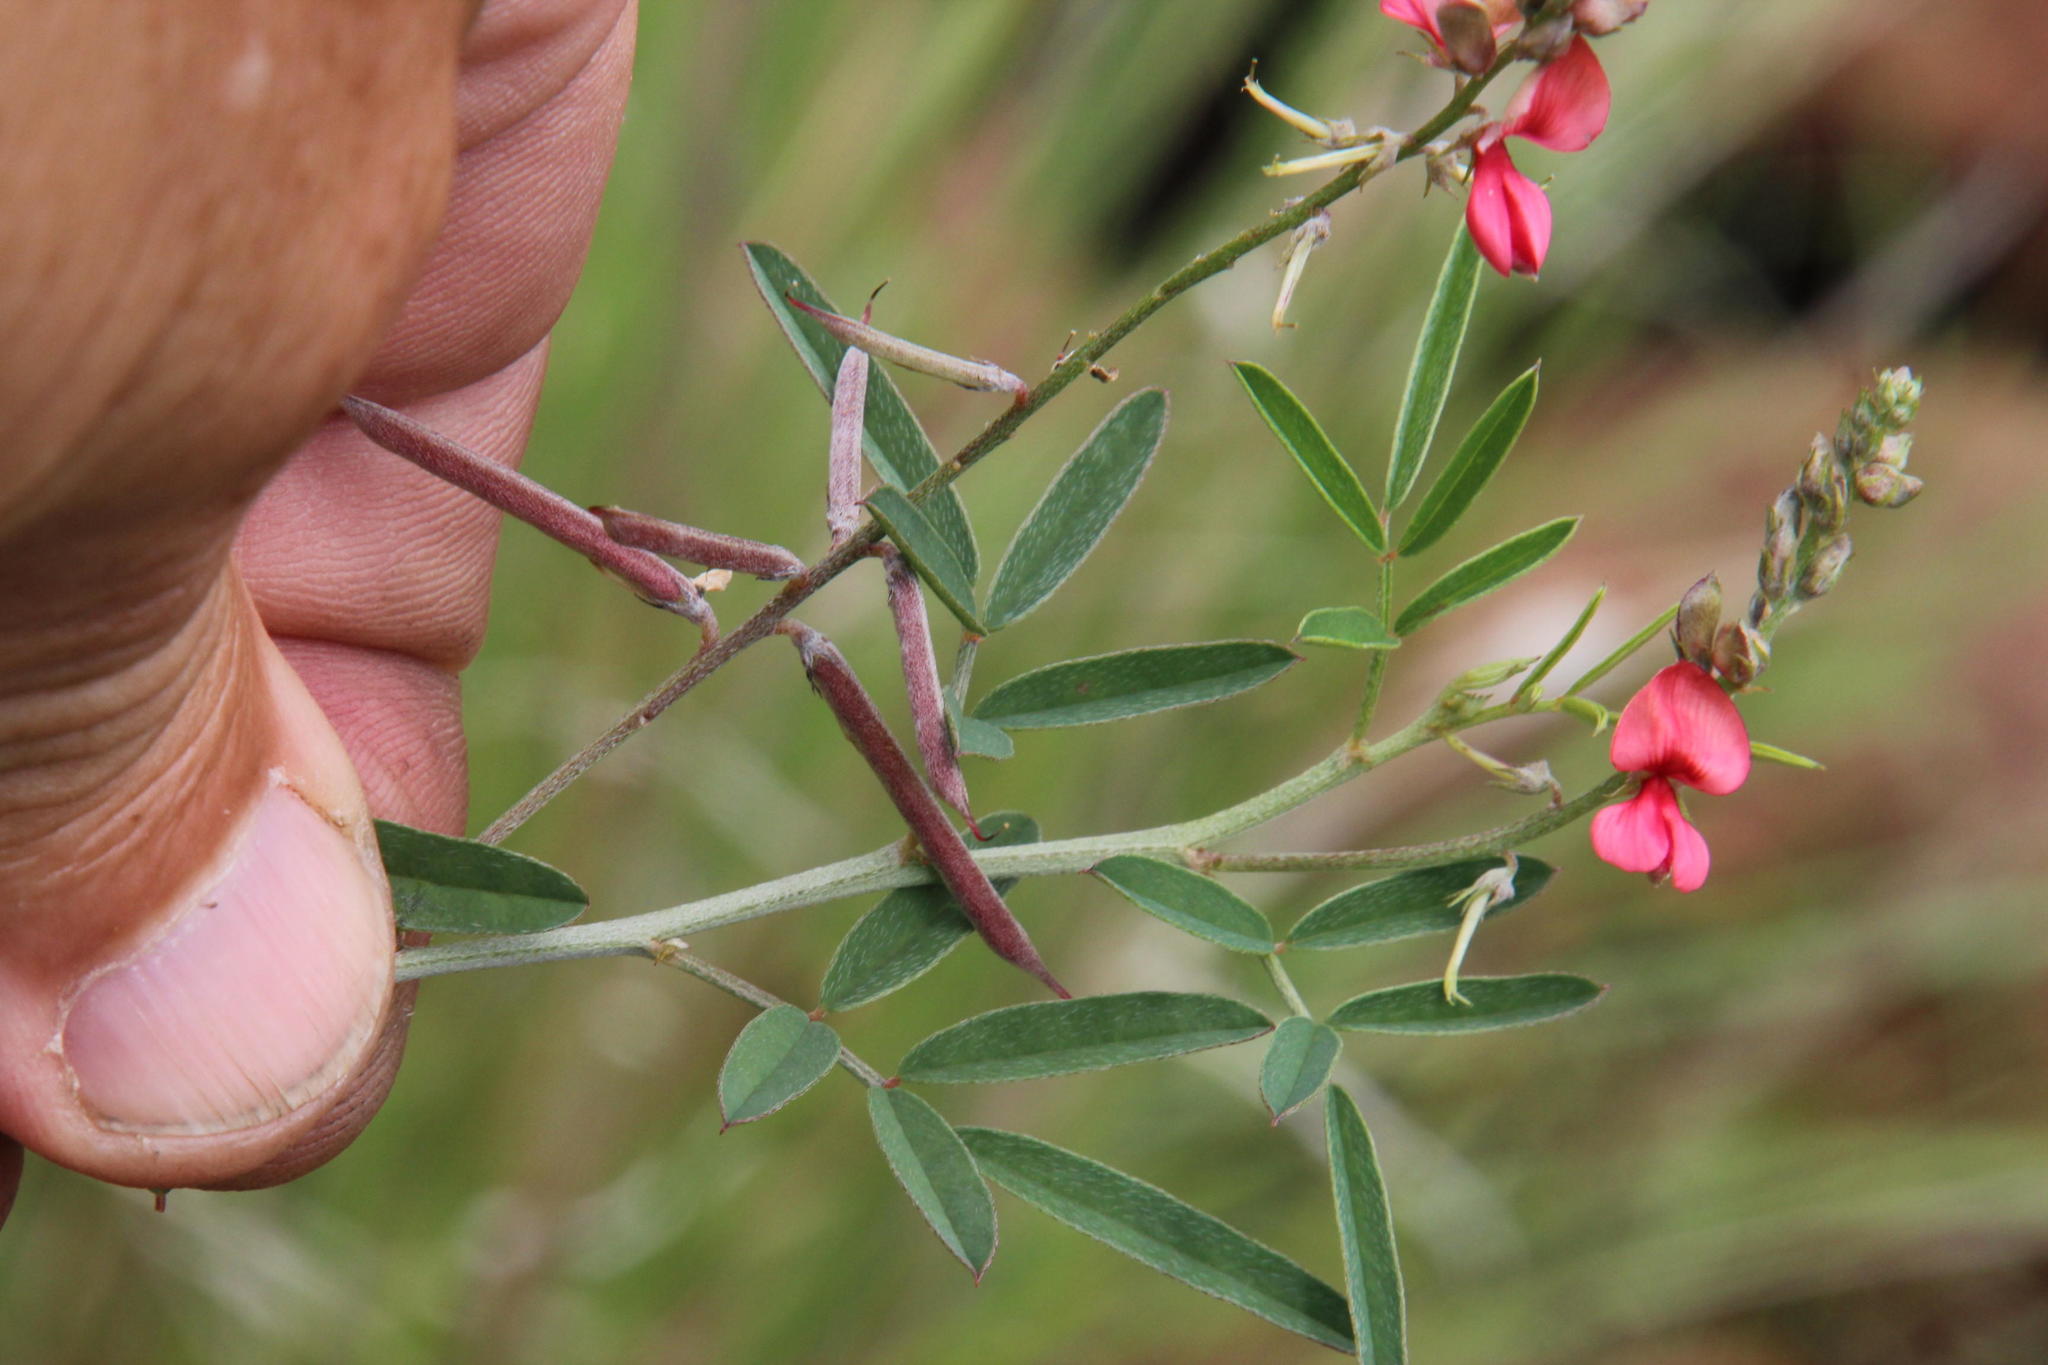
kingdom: Plantae
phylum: Tracheophyta
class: Magnoliopsida
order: Fabales
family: Fabaceae
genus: Indigofera
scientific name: Indigofera disticha
